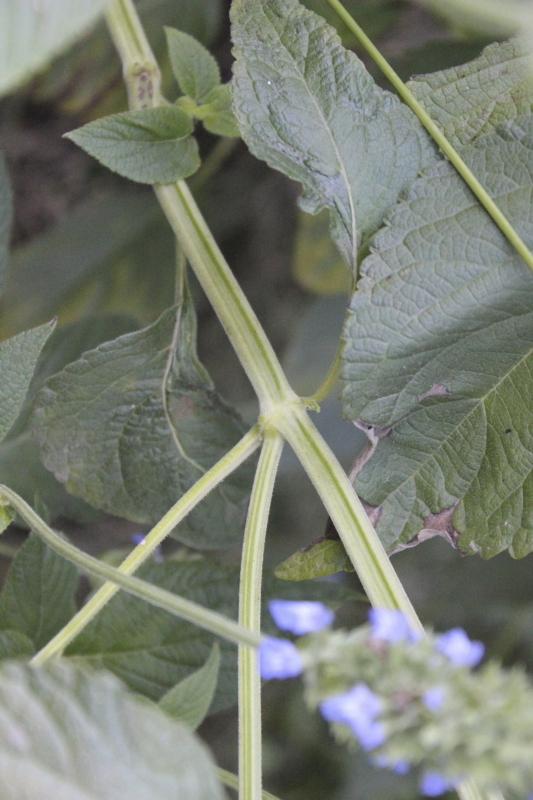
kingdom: Plantae
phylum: Tracheophyta
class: Magnoliopsida
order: Lamiales
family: Lamiaceae
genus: Salvia
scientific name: Salvia hispanica
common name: Chia
